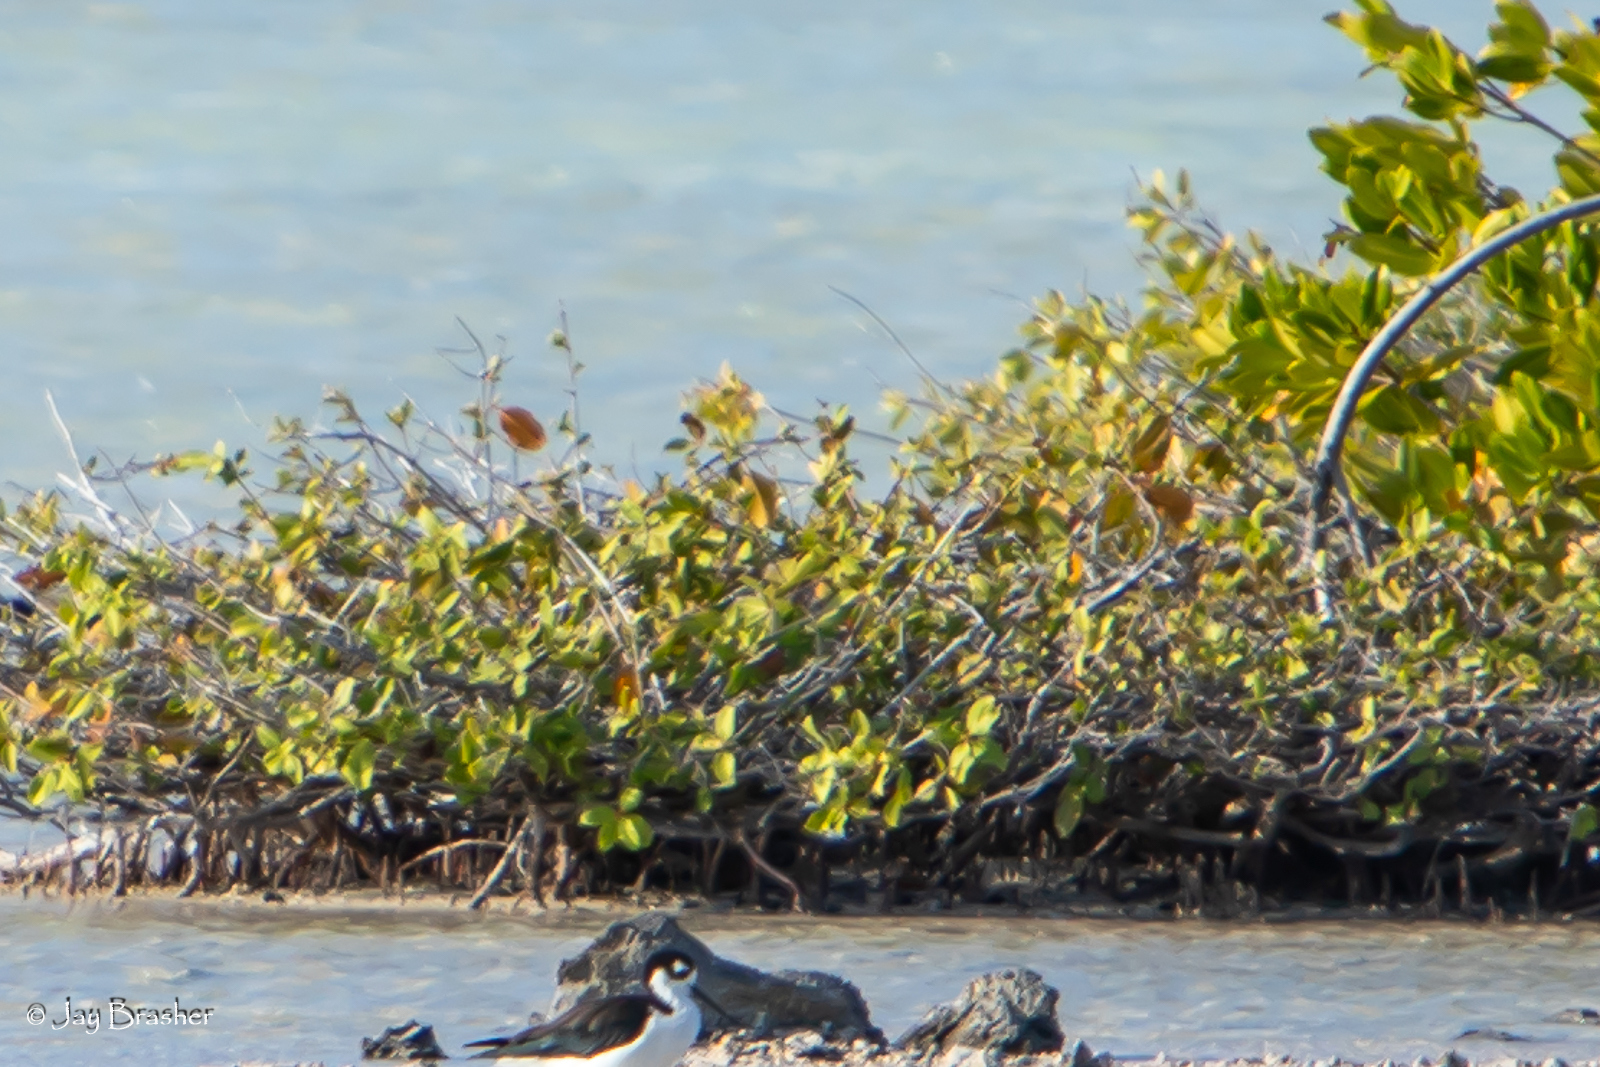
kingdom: Plantae
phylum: Tracheophyta
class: Magnoliopsida
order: Myrtales
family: Combretaceae
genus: Laguncularia
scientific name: Laguncularia racemosa
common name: White mangrove
